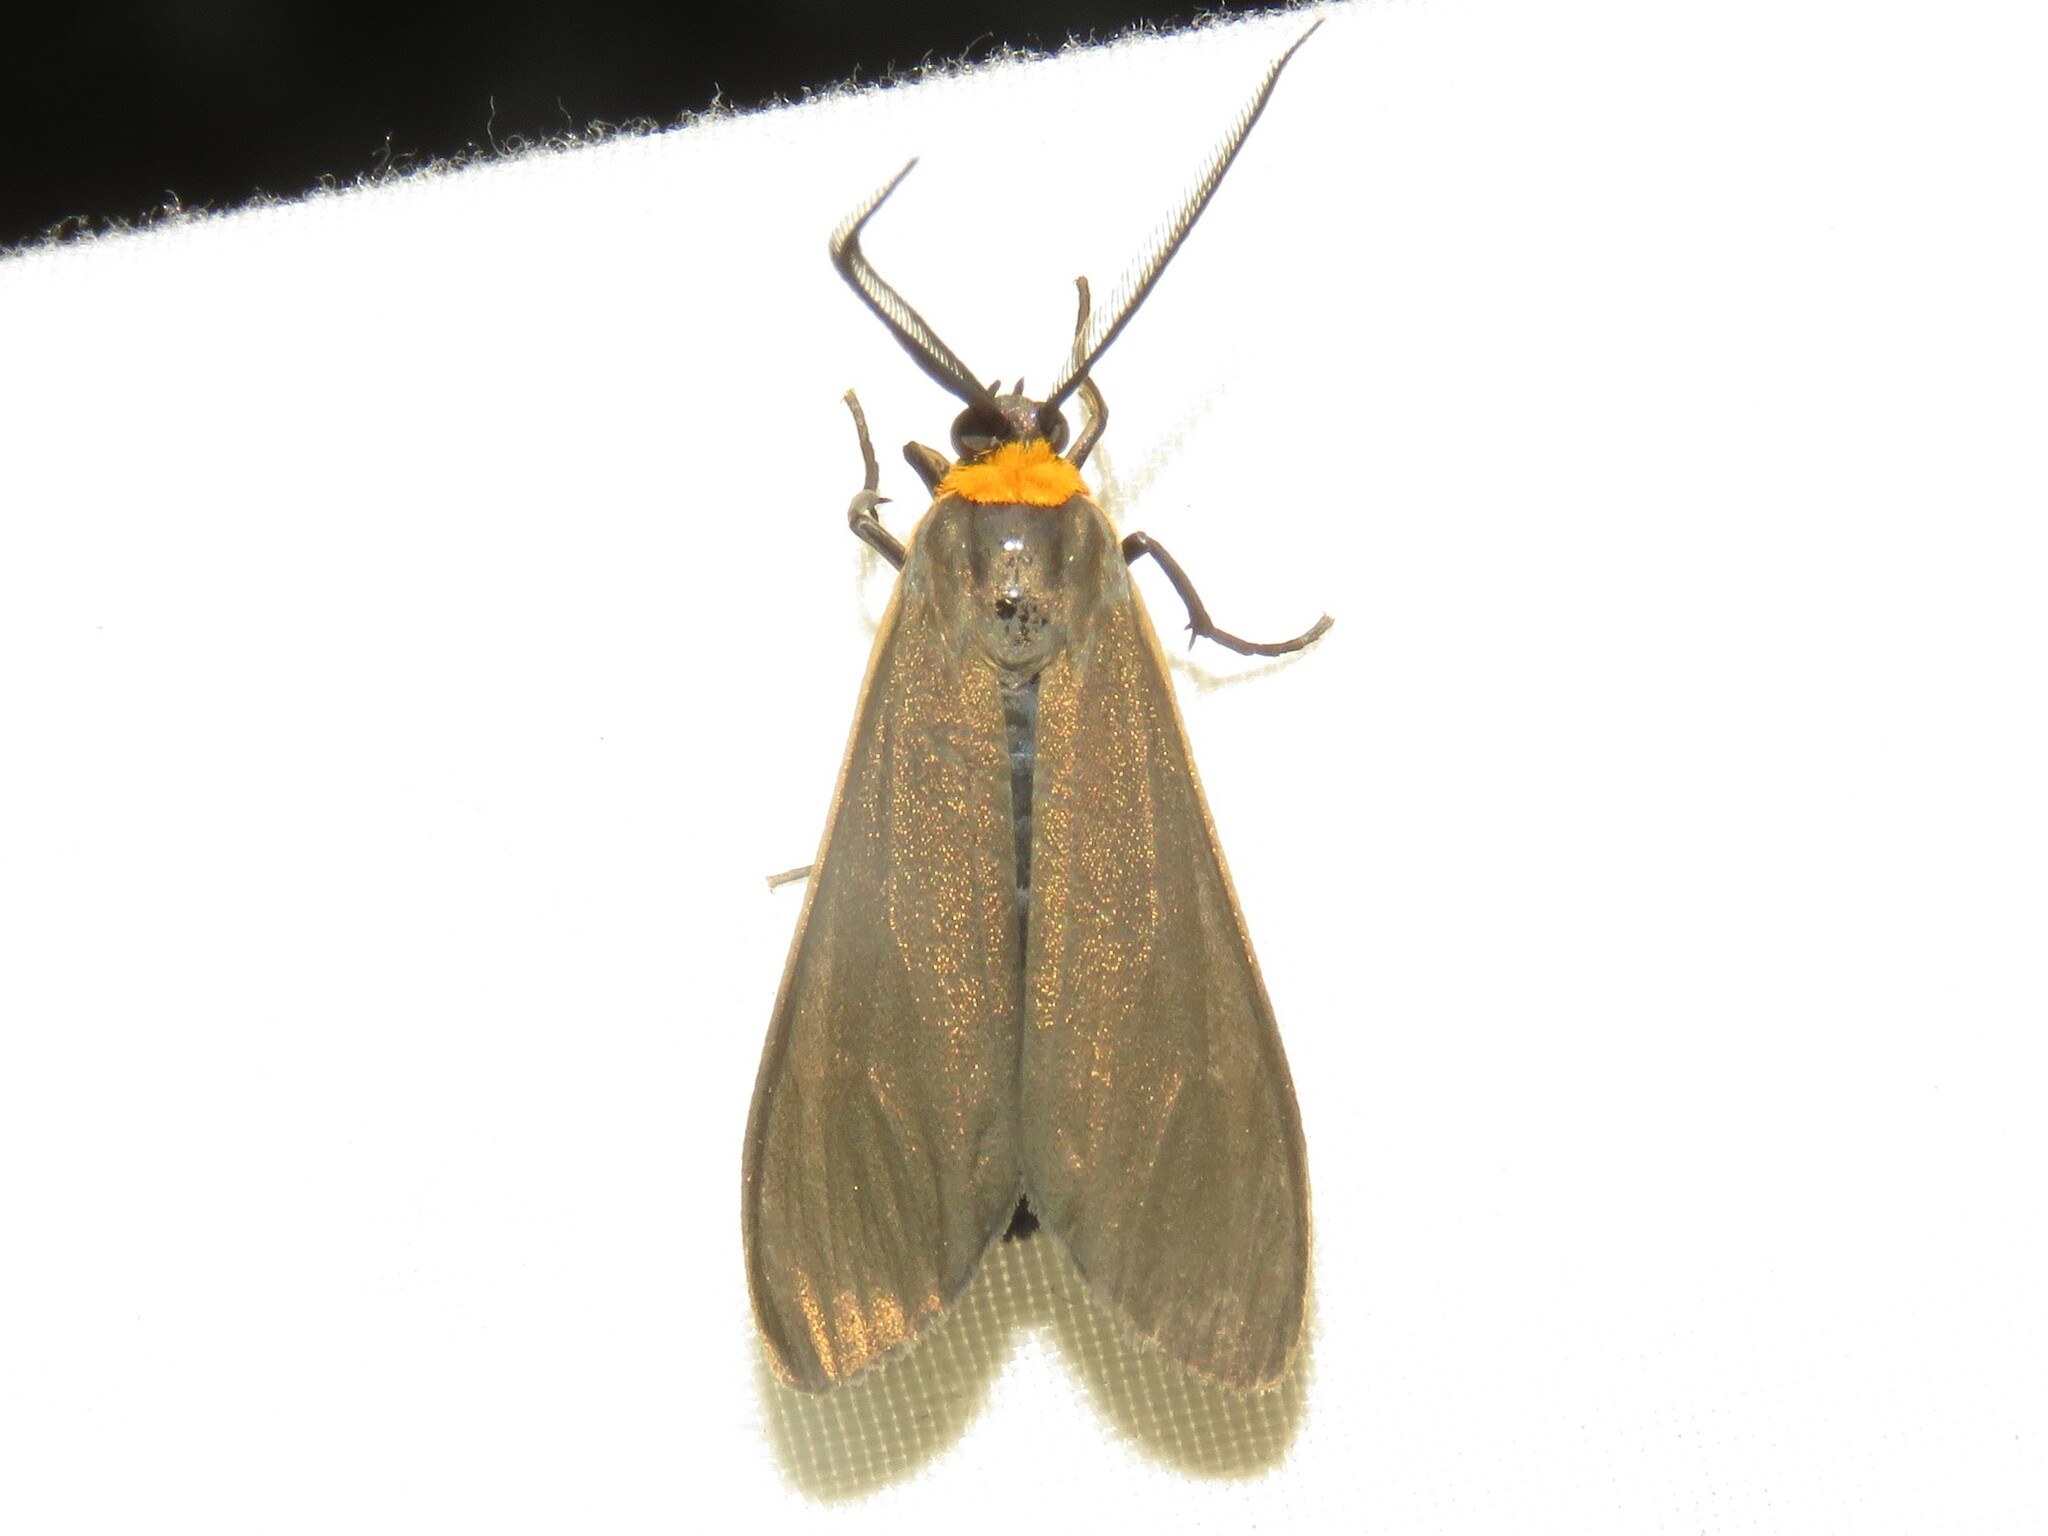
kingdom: Animalia
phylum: Arthropoda
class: Insecta
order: Lepidoptera
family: Erebidae
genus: Cisseps
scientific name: Cisseps fulvicollis
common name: Yellow-collared scape moth
